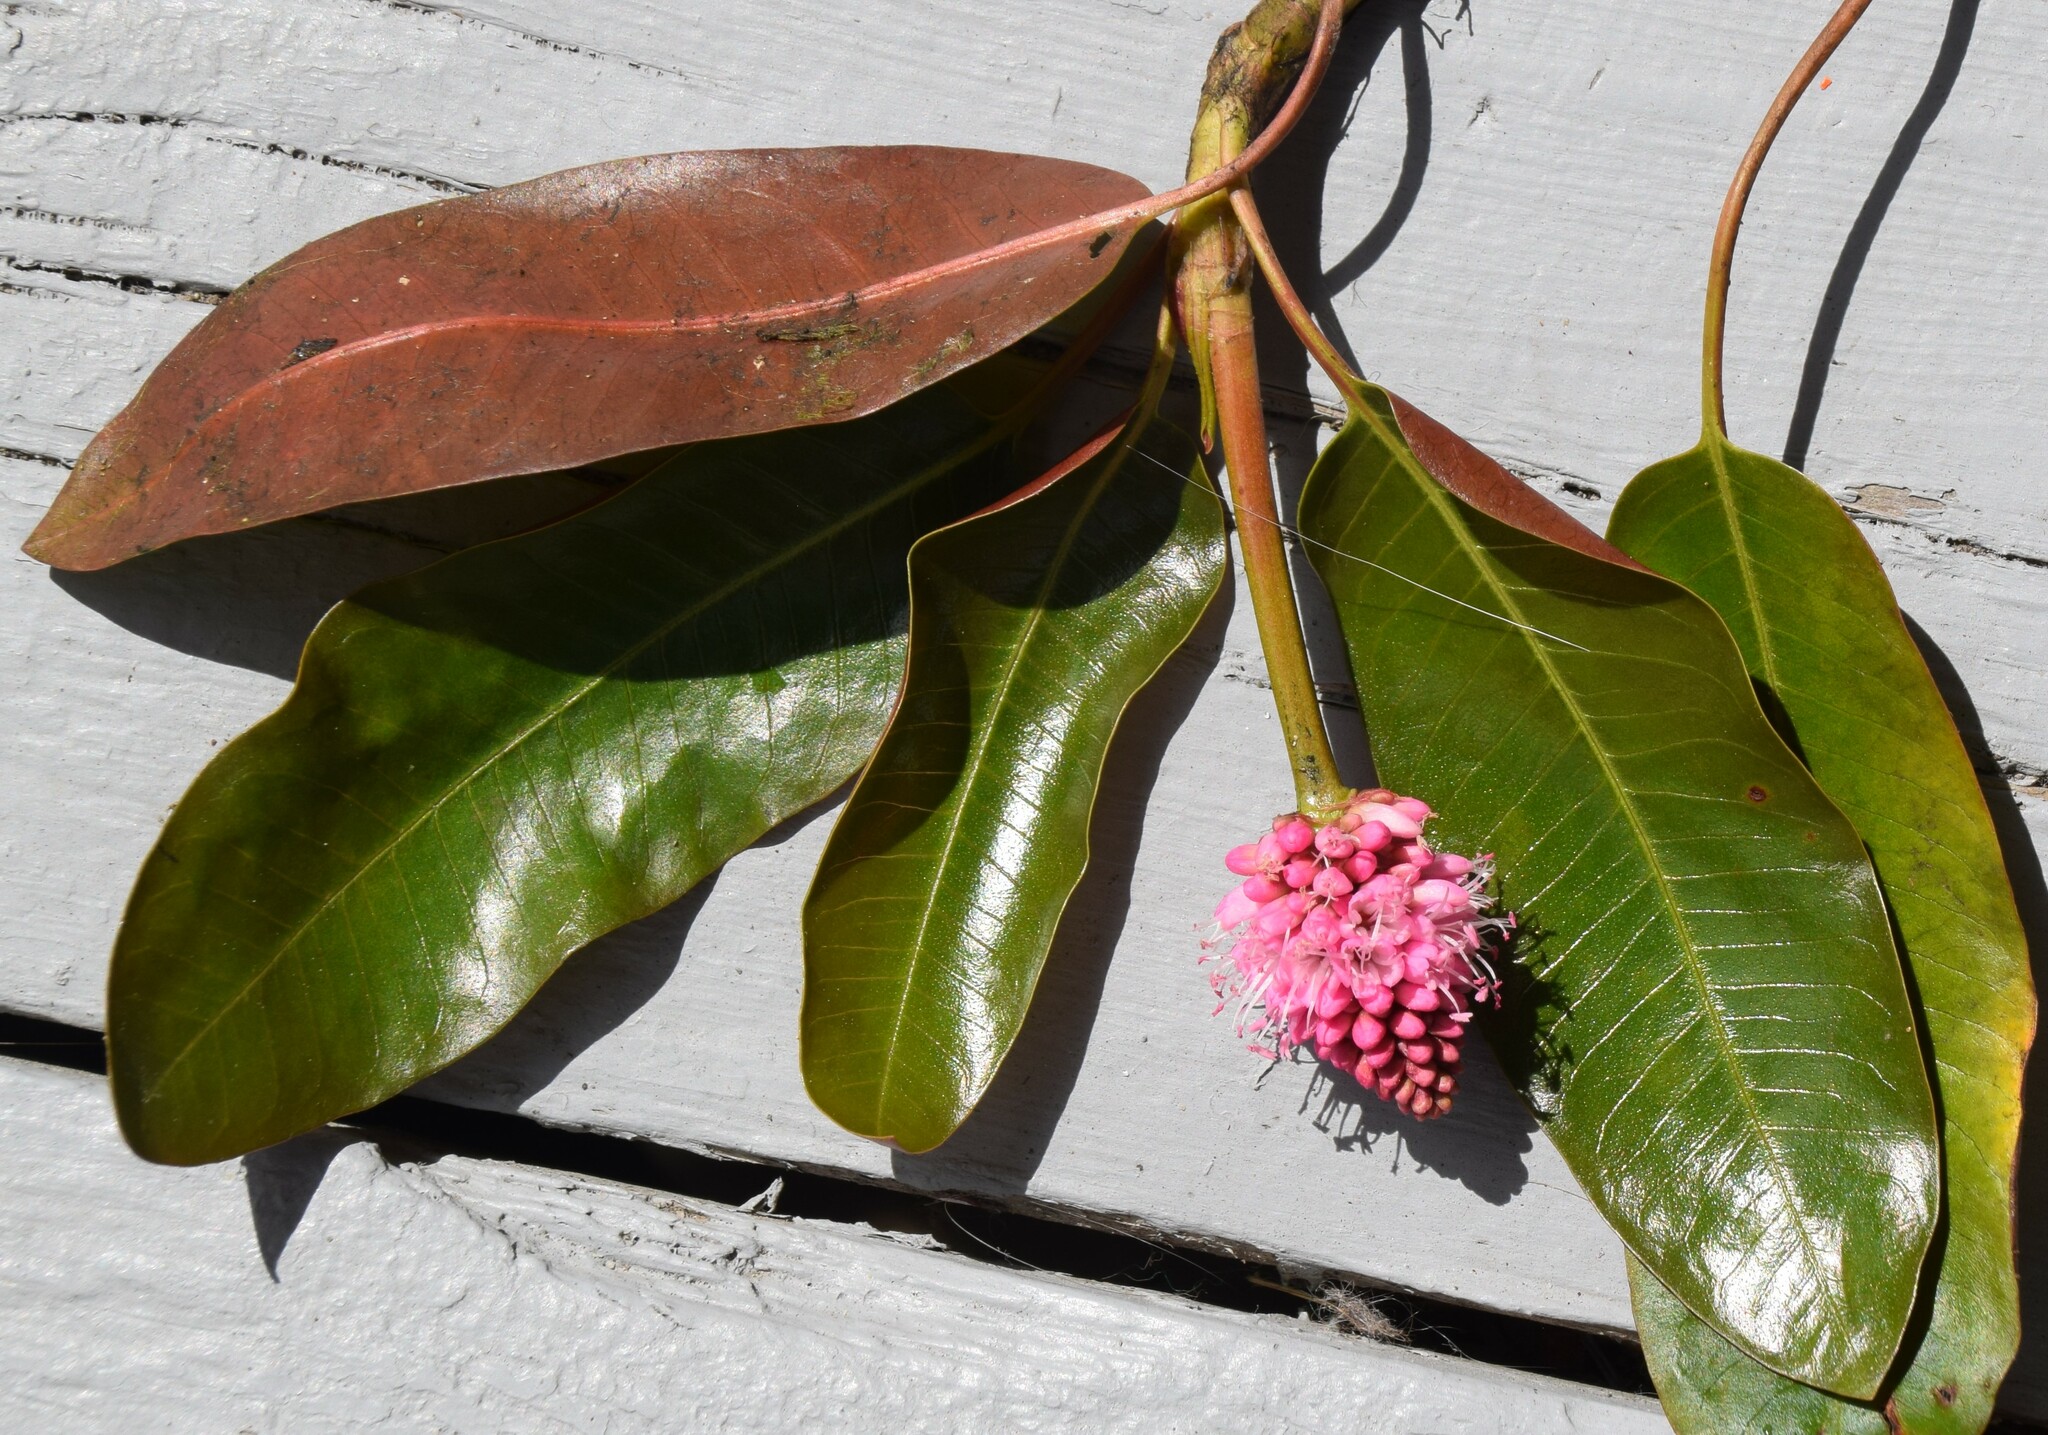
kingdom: Plantae
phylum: Tracheophyta
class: Magnoliopsida
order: Caryophyllales
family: Polygonaceae
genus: Persicaria
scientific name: Persicaria amphibia
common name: Amphibious bistort
